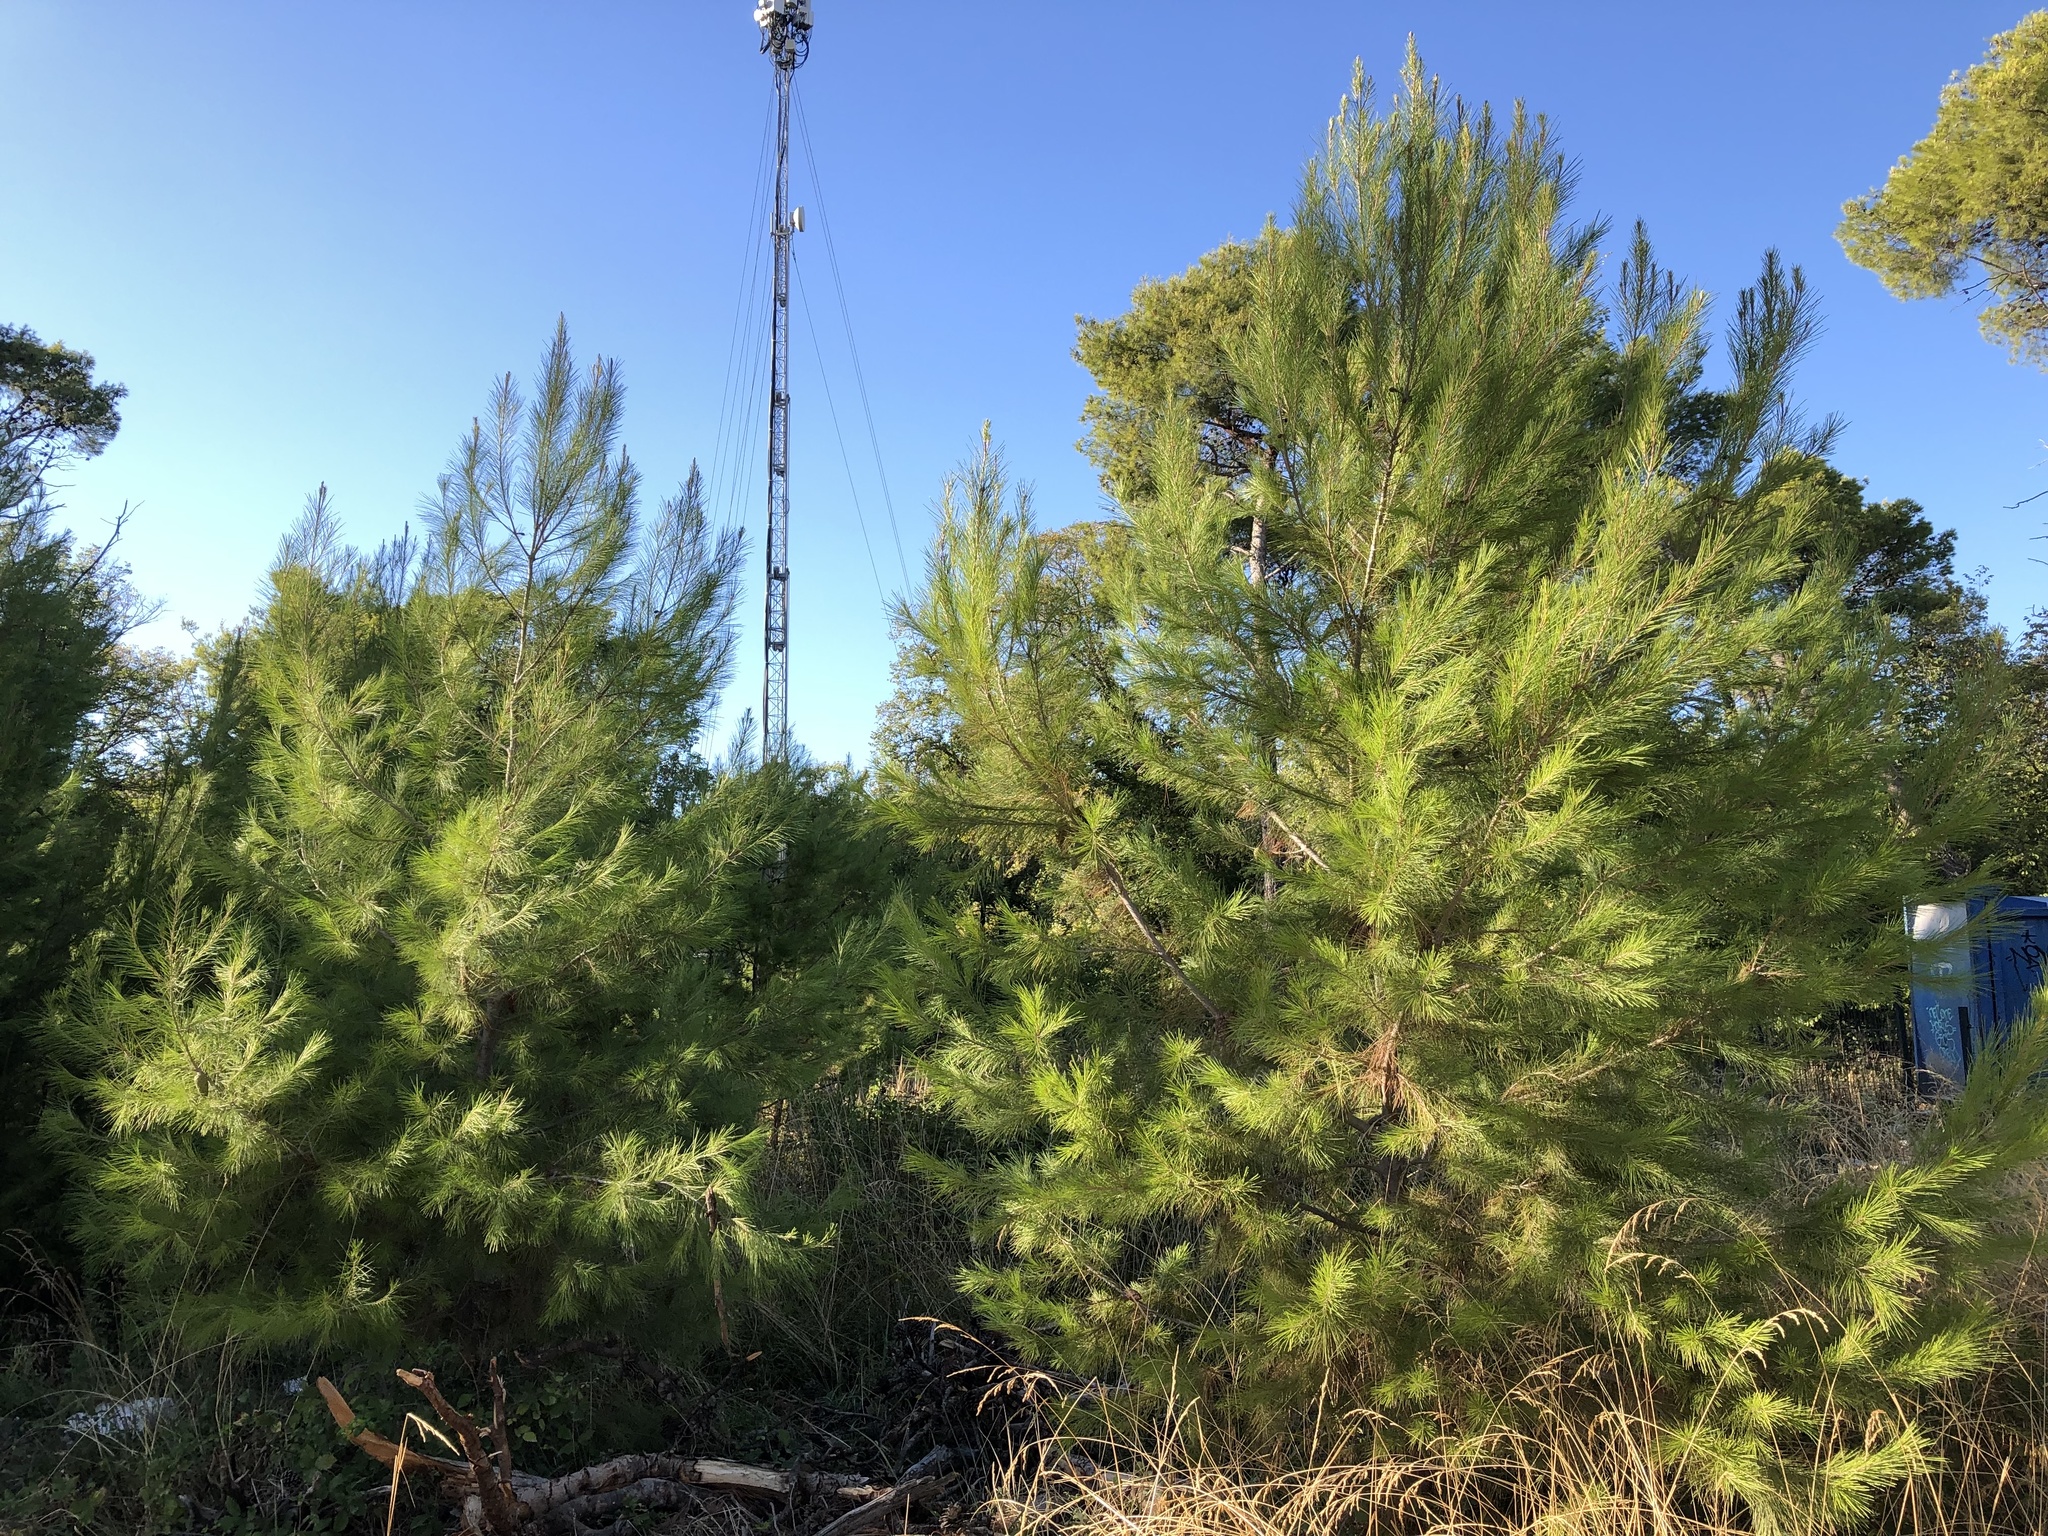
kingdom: Plantae
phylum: Tracheophyta
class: Pinopsida
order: Pinales
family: Pinaceae
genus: Pinus
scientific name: Pinus halepensis
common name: Aleppo pine
